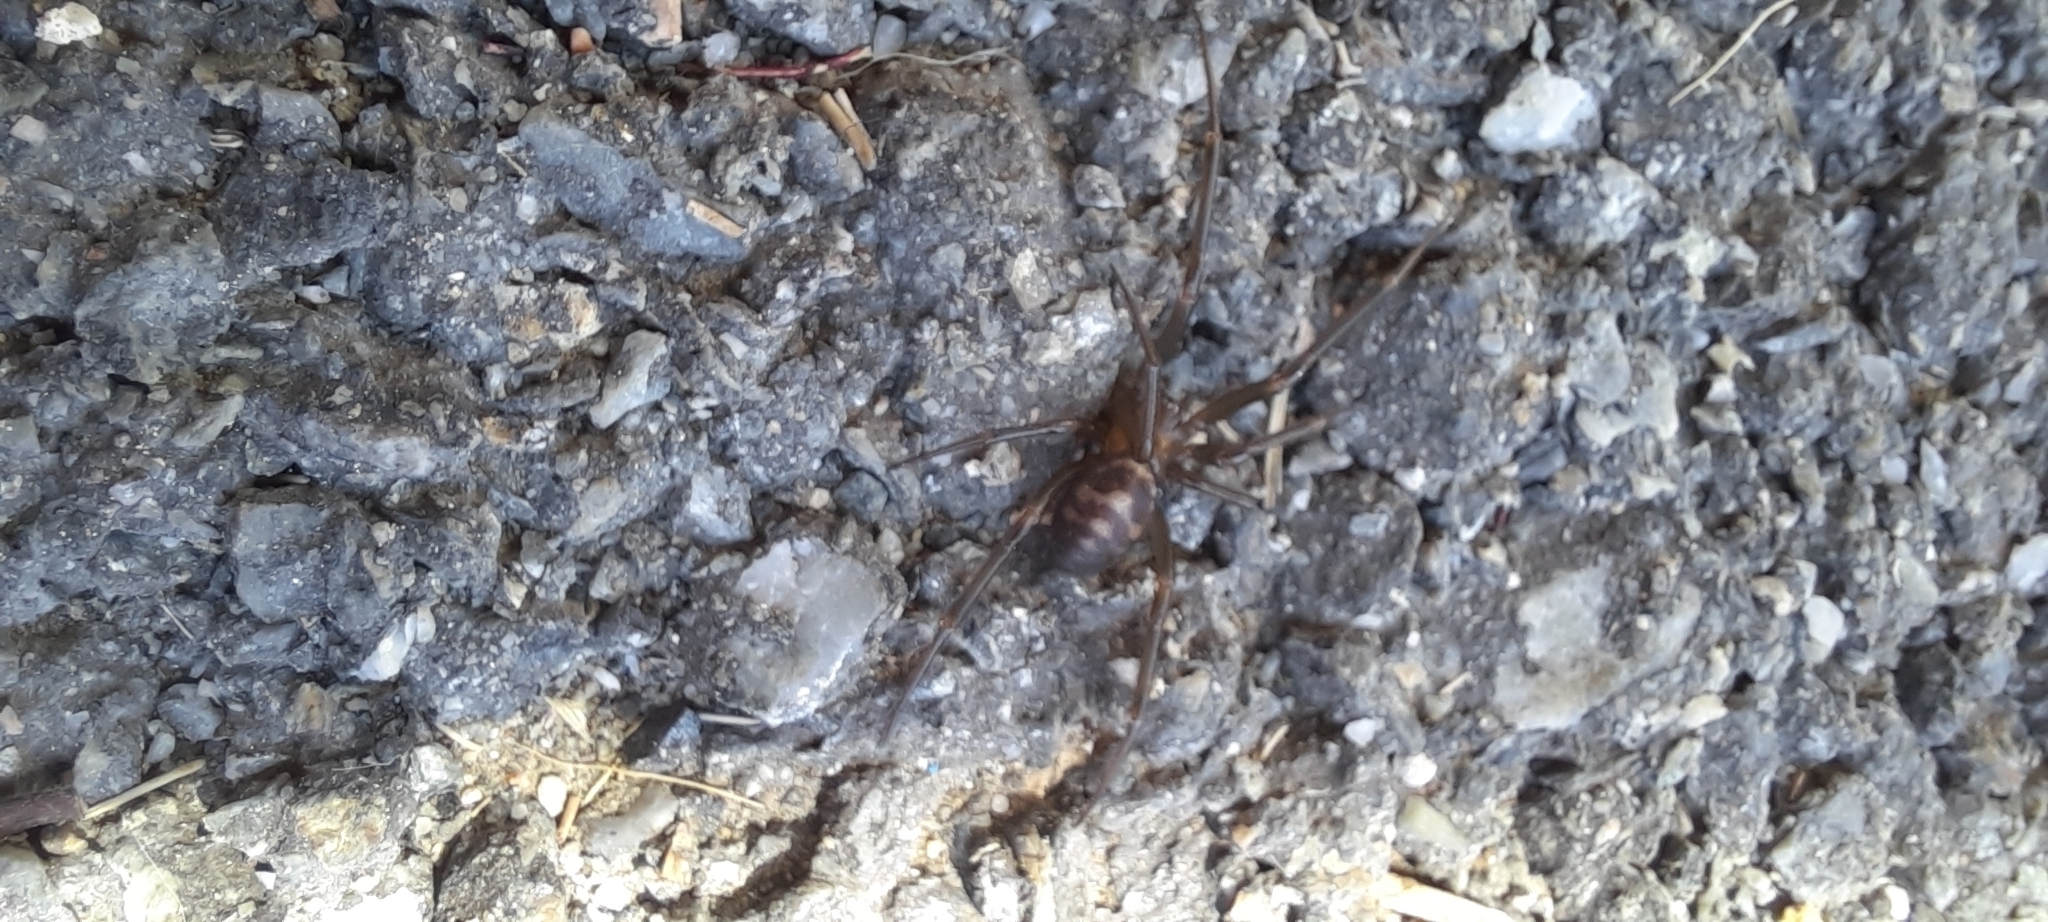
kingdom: Animalia
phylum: Arthropoda
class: Arachnida
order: Araneae
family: Theridiidae
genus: Steatoda
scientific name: Steatoda grossa
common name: False black widow
